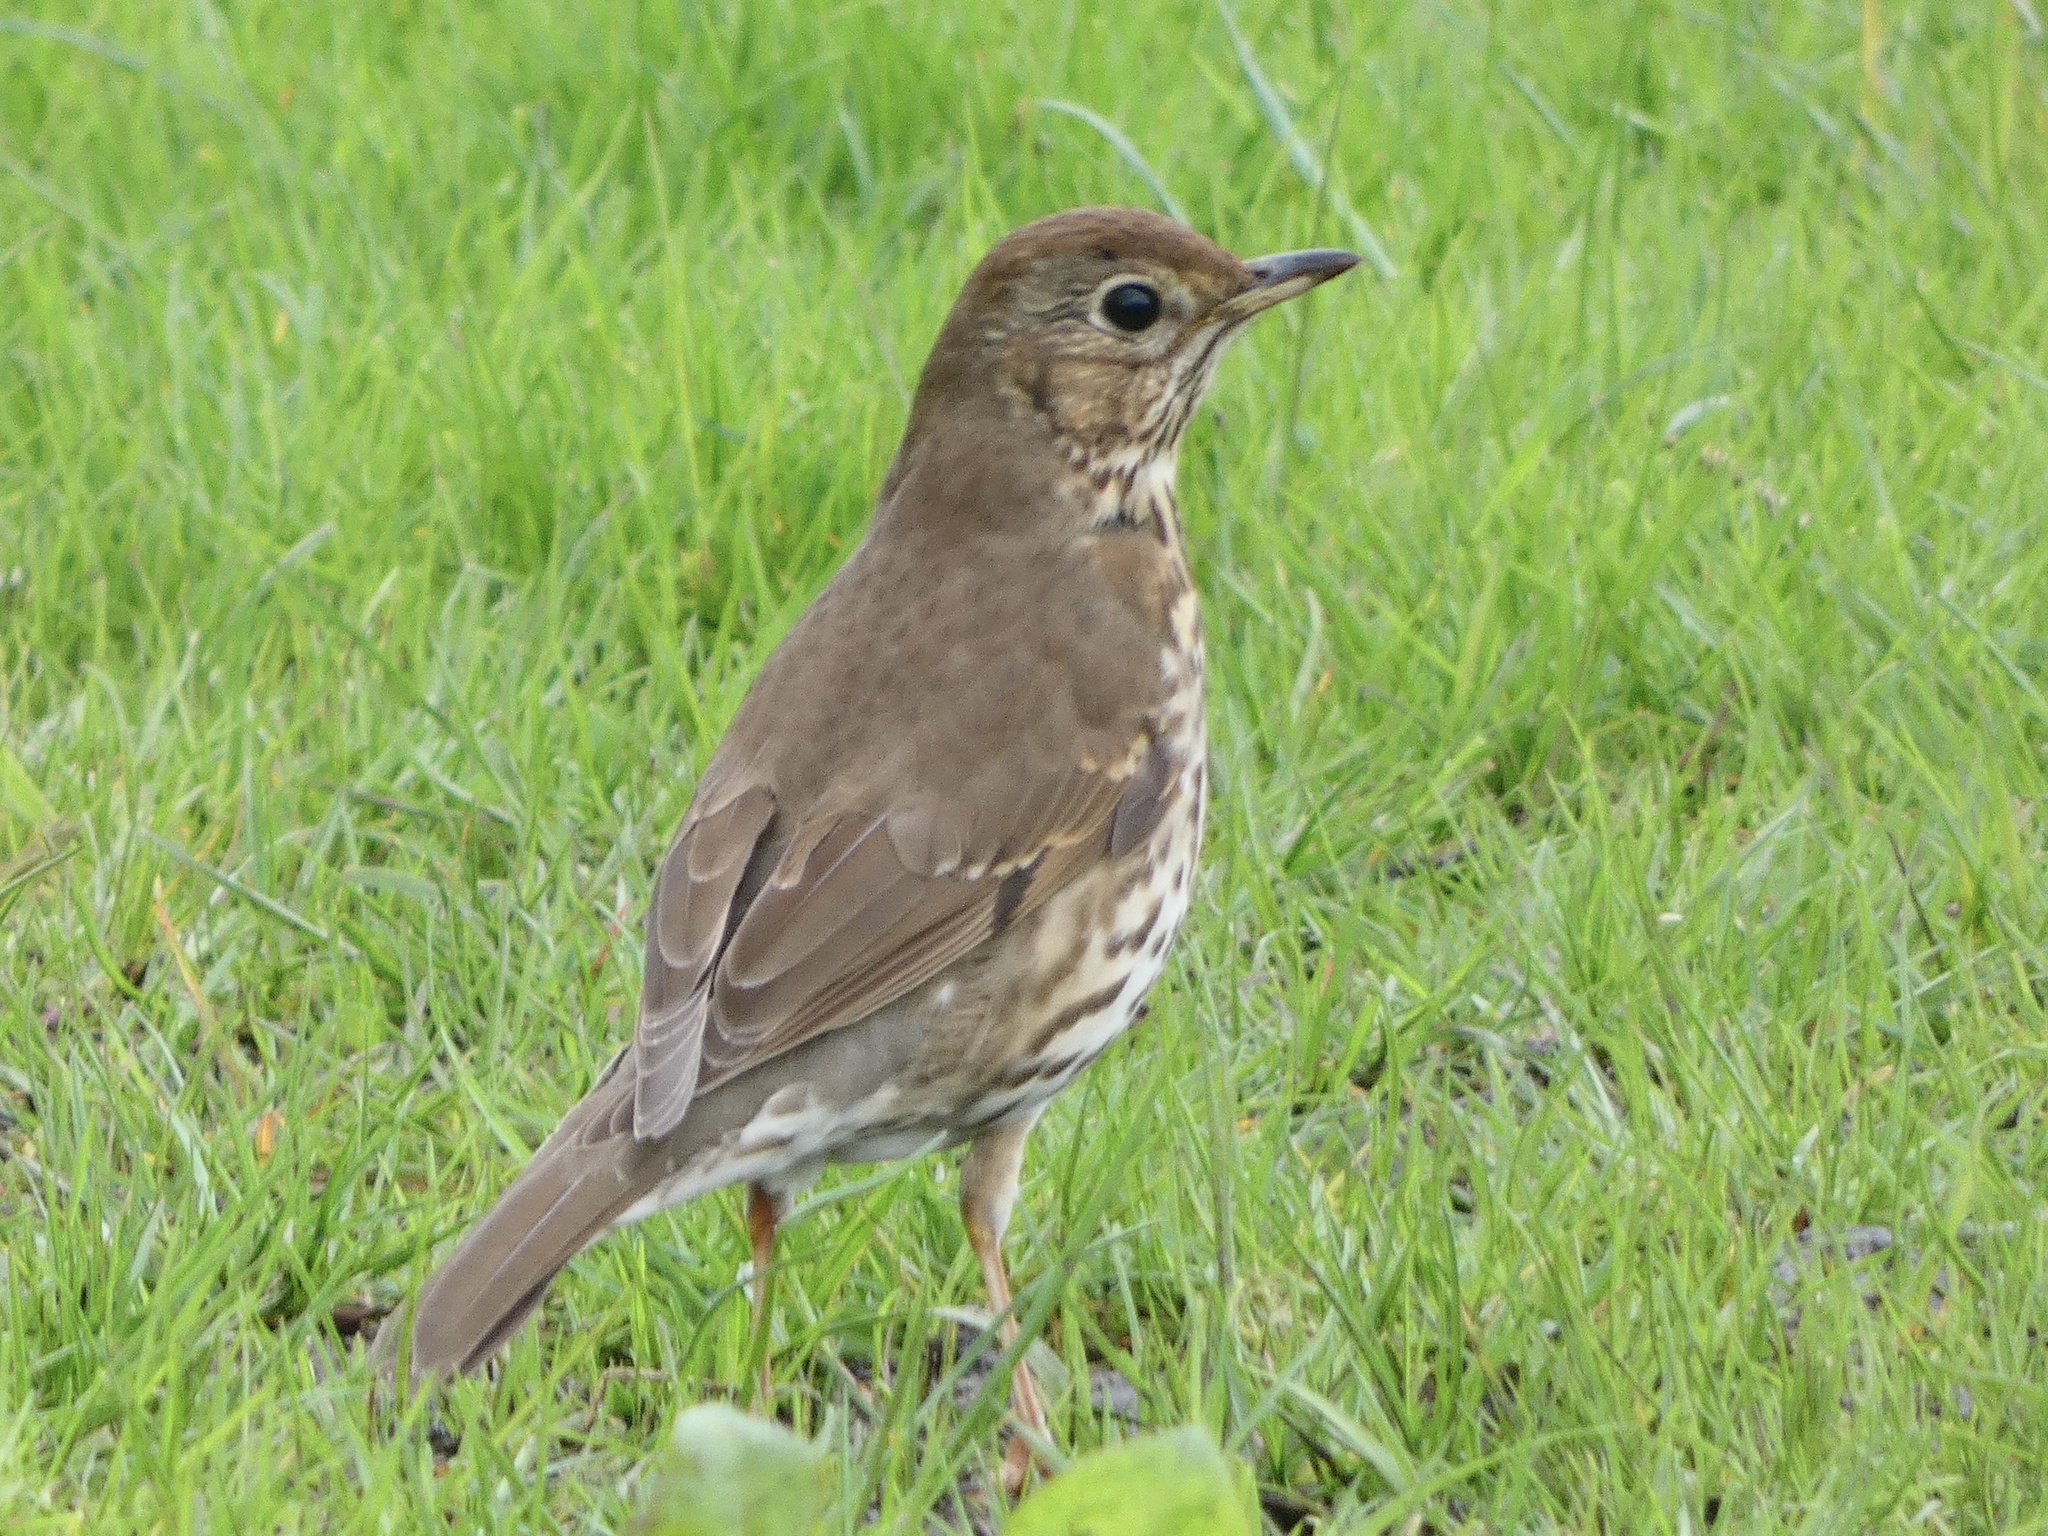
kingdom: Animalia
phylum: Chordata
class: Aves
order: Passeriformes
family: Turdidae
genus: Turdus
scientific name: Turdus philomelos
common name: Song thrush
